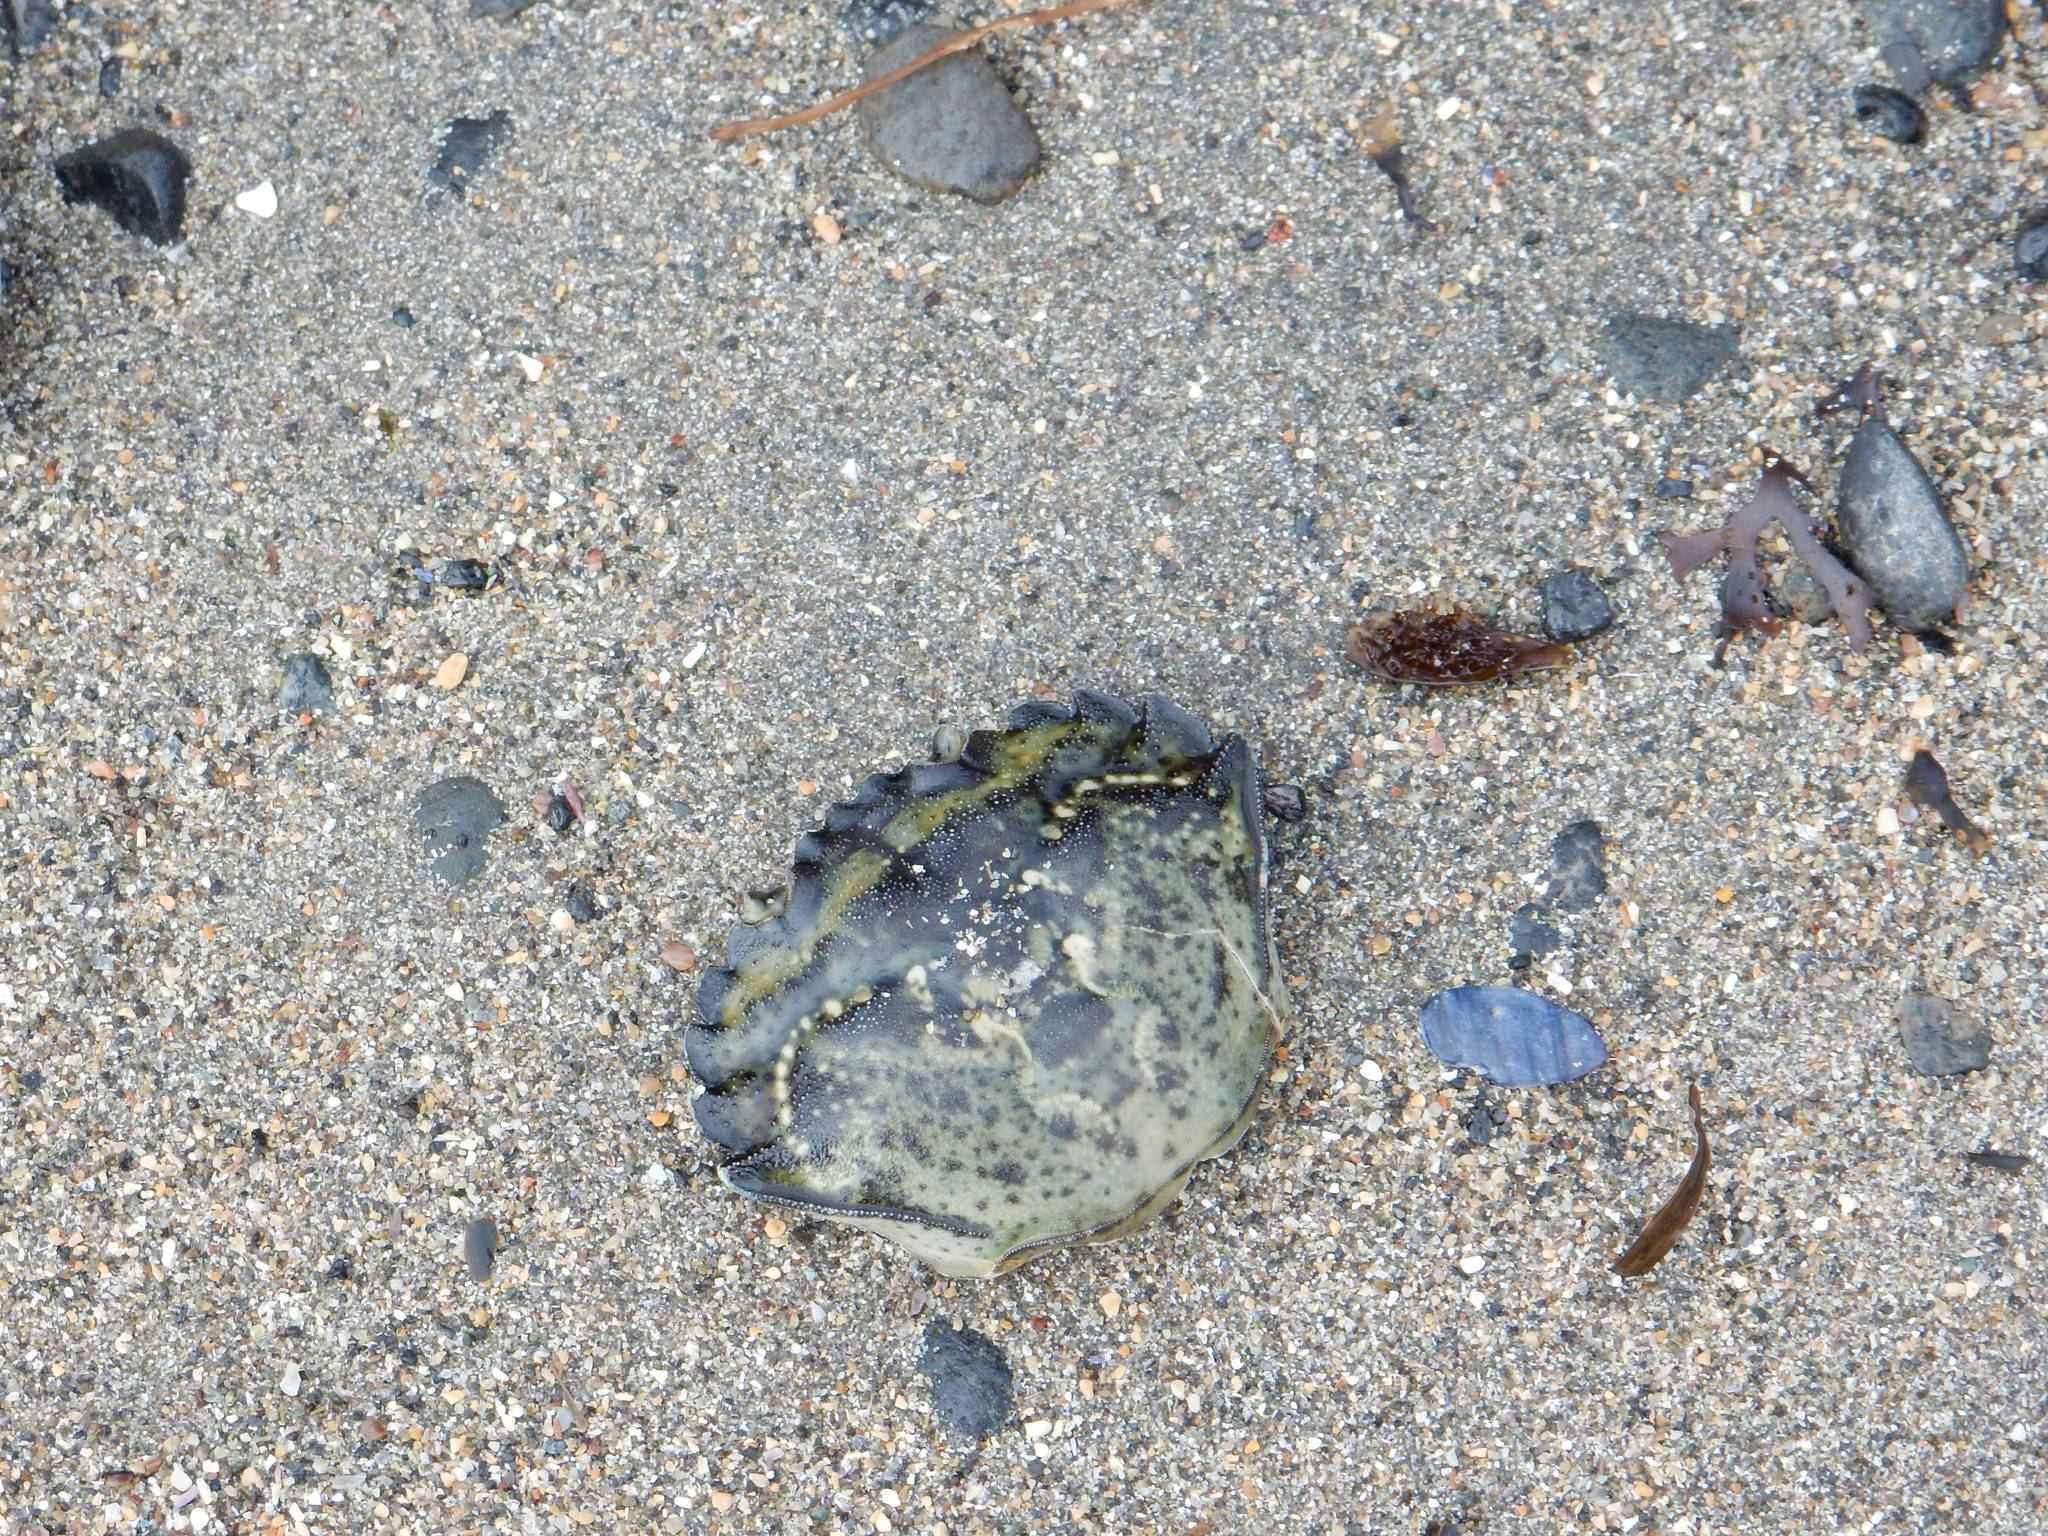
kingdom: Animalia
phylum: Arthropoda
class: Malacostraca
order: Decapoda
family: Carcinidae
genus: Carcinus
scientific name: Carcinus maenas
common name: European green crab
